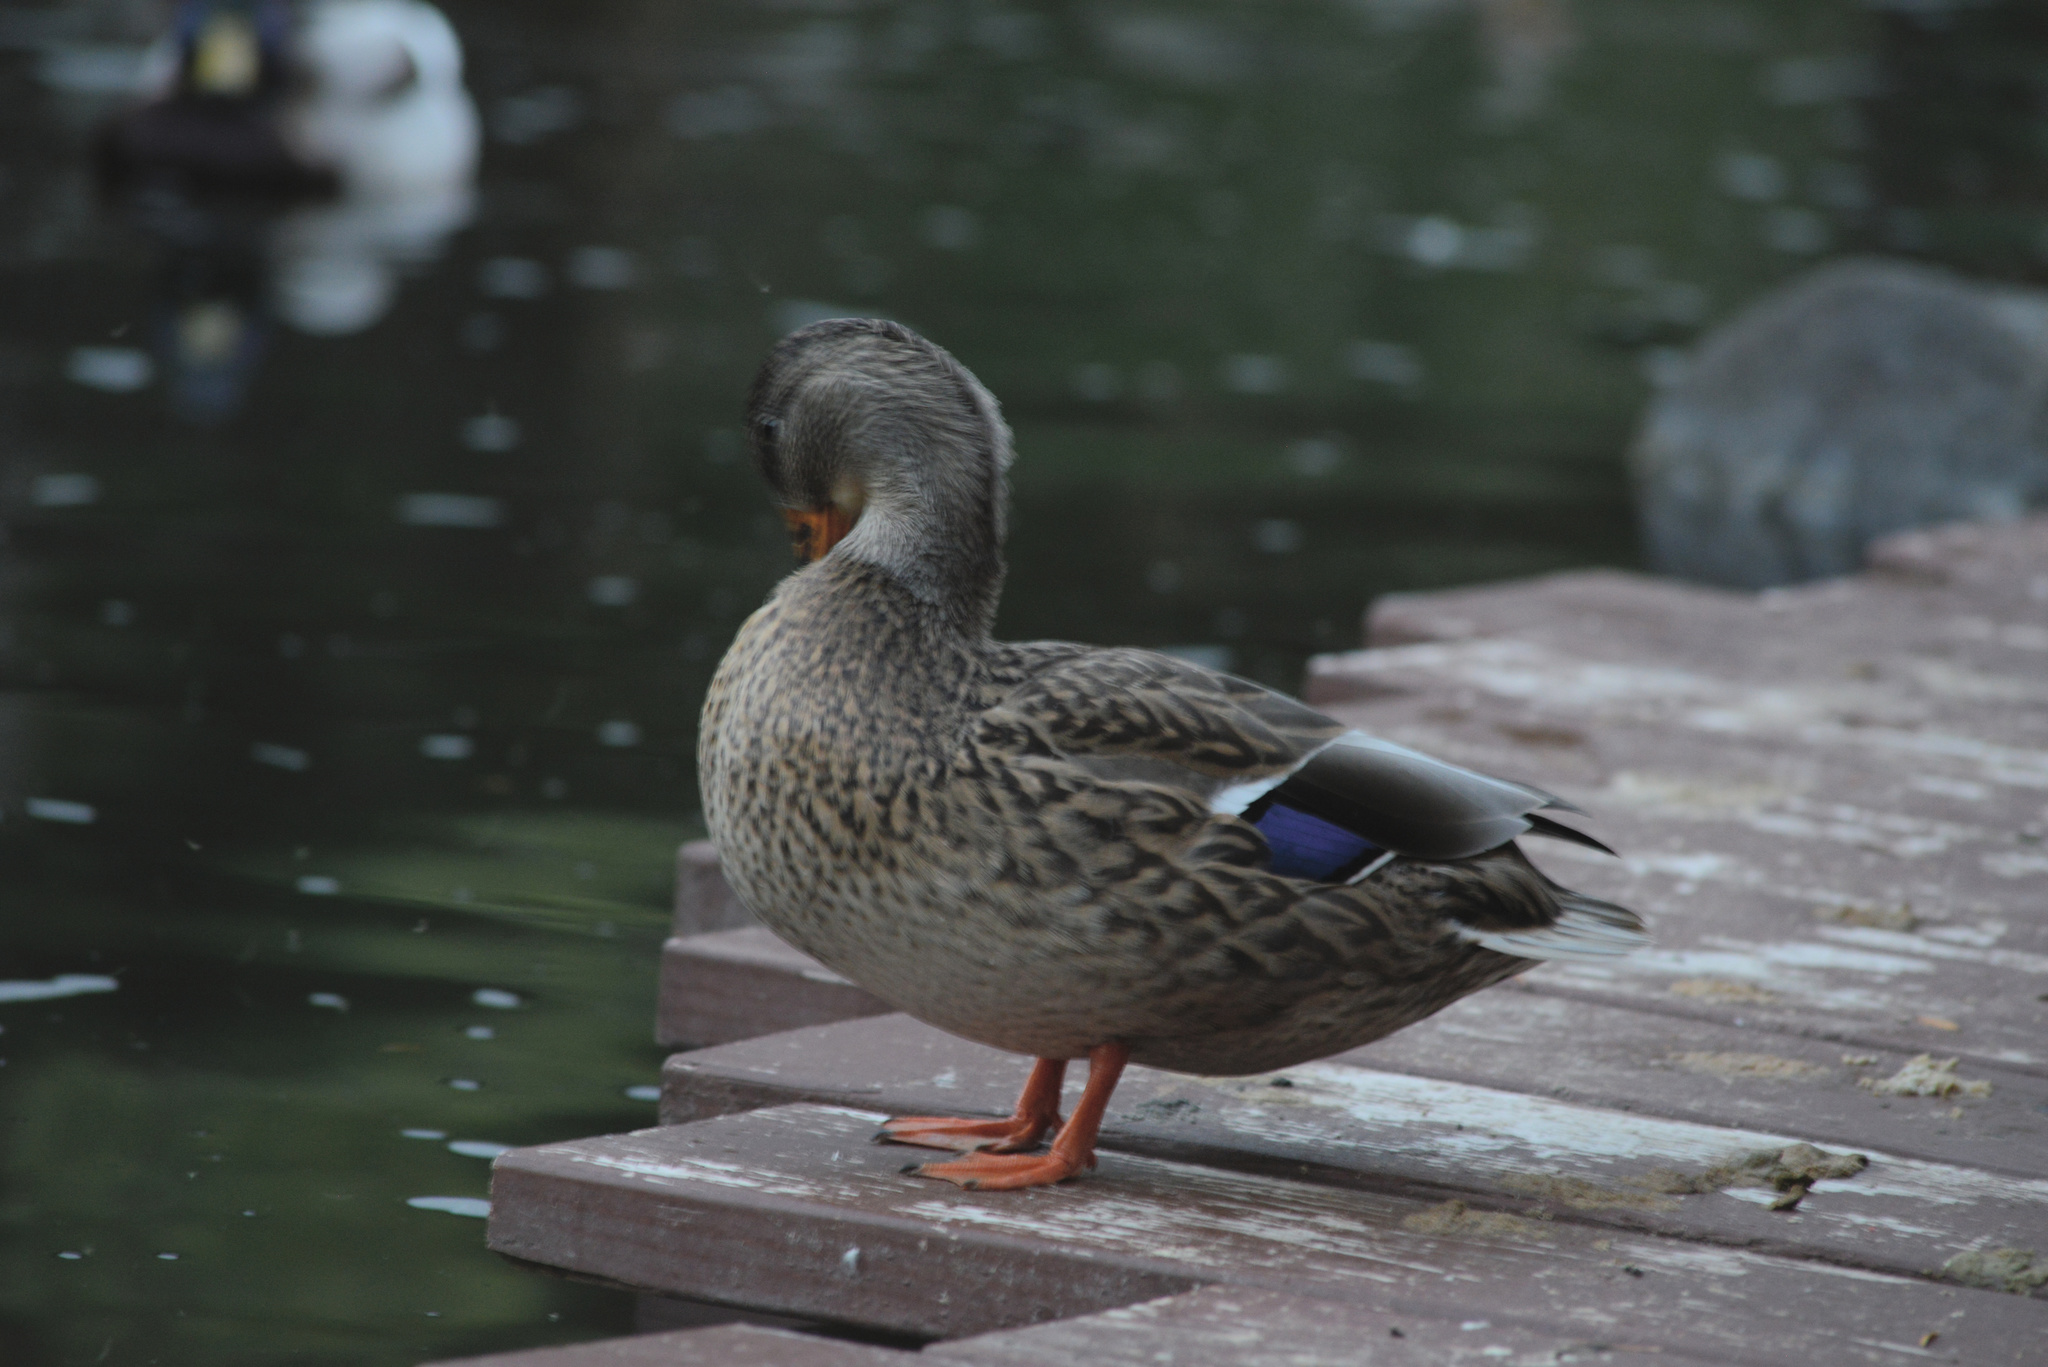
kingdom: Animalia
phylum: Chordata
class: Aves
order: Anseriformes
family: Anatidae
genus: Anas
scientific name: Anas platyrhynchos
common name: Mallard
